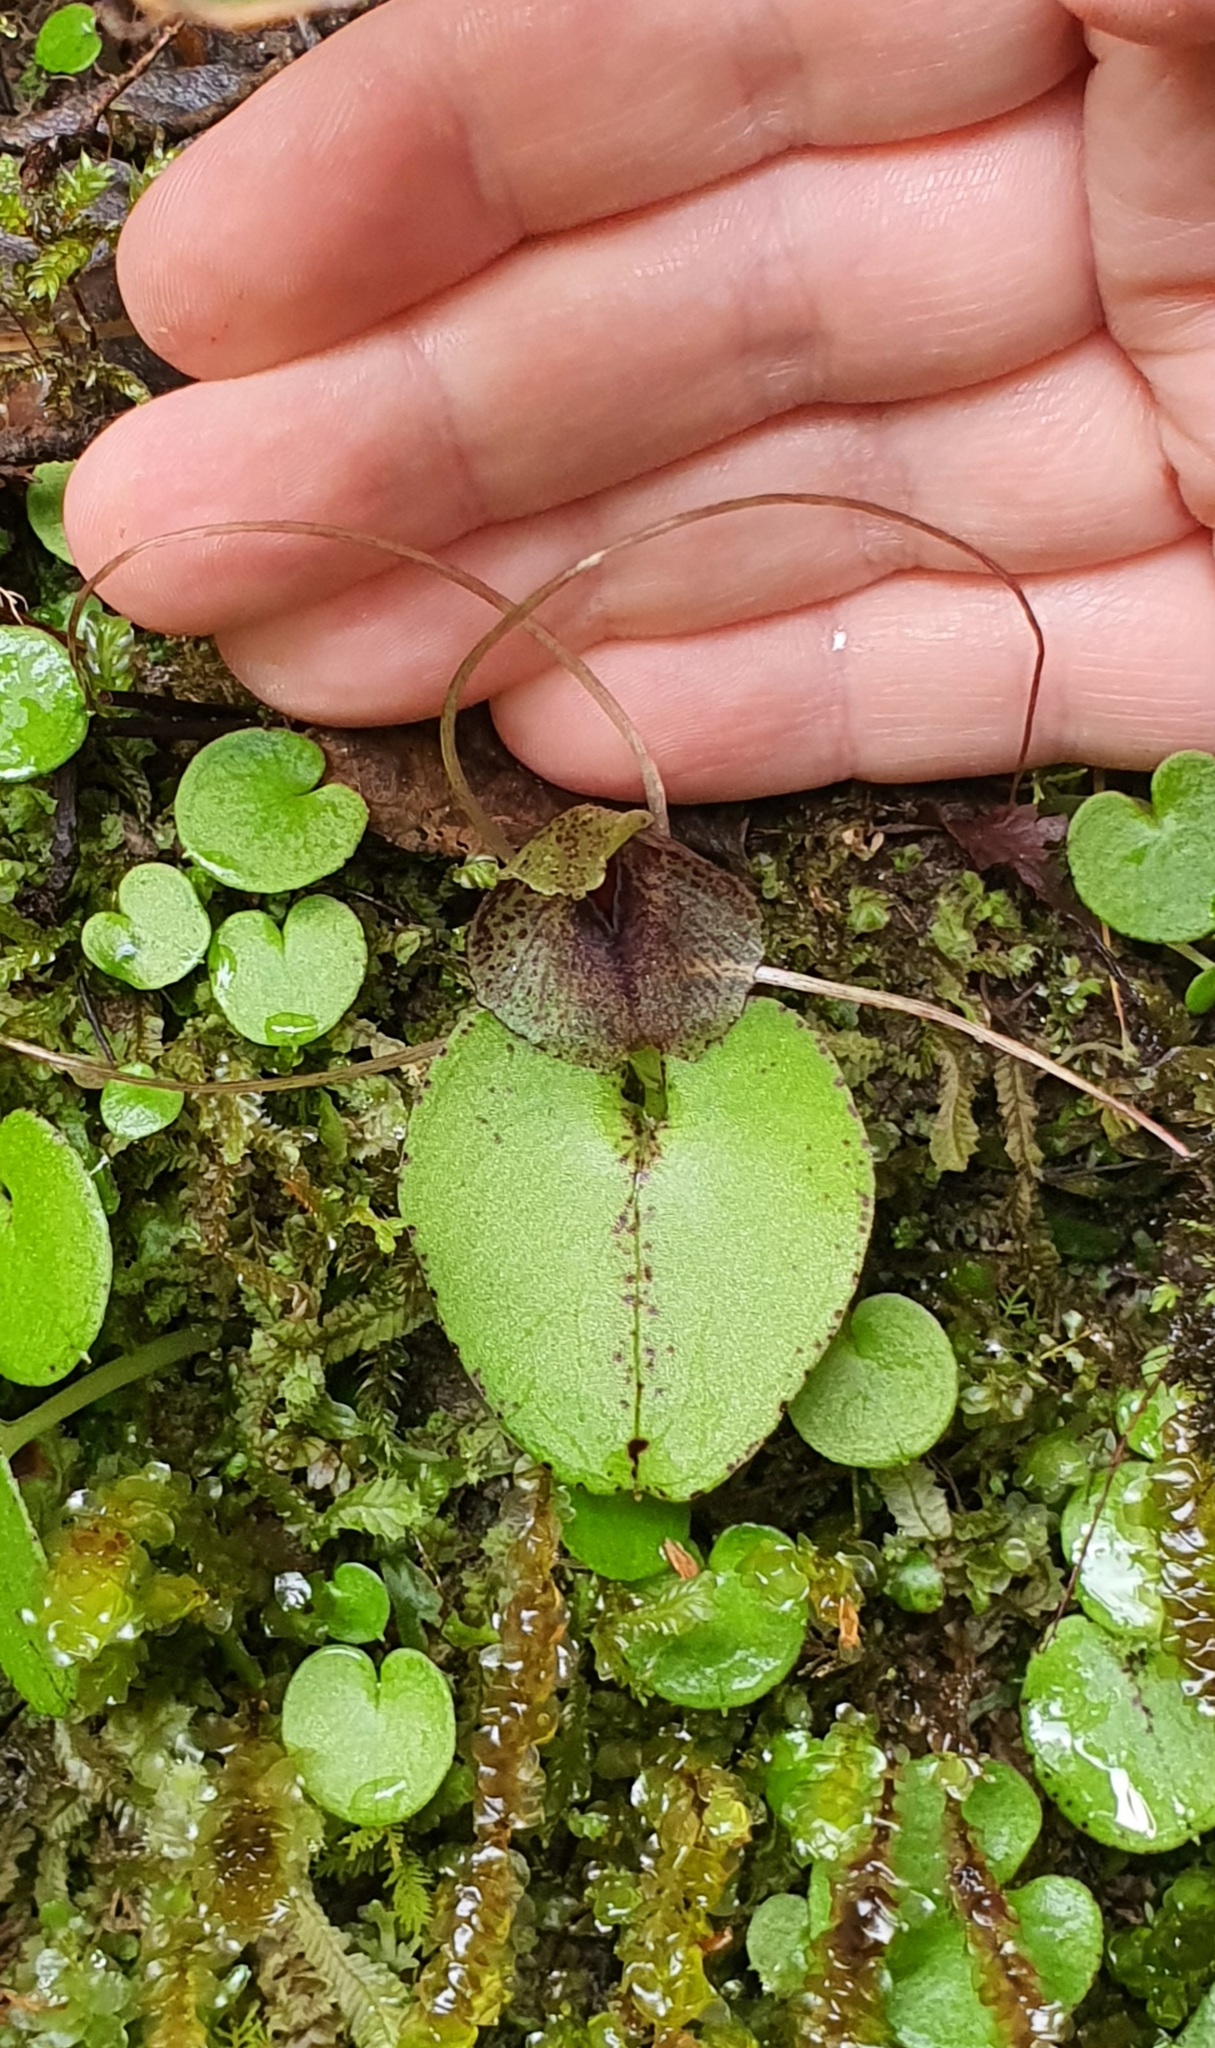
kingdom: Plantae
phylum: Tracheophyta
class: Liliopsida
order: Asparagales
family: Orchidaceae
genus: Corybas
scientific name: Corybas iridescens
